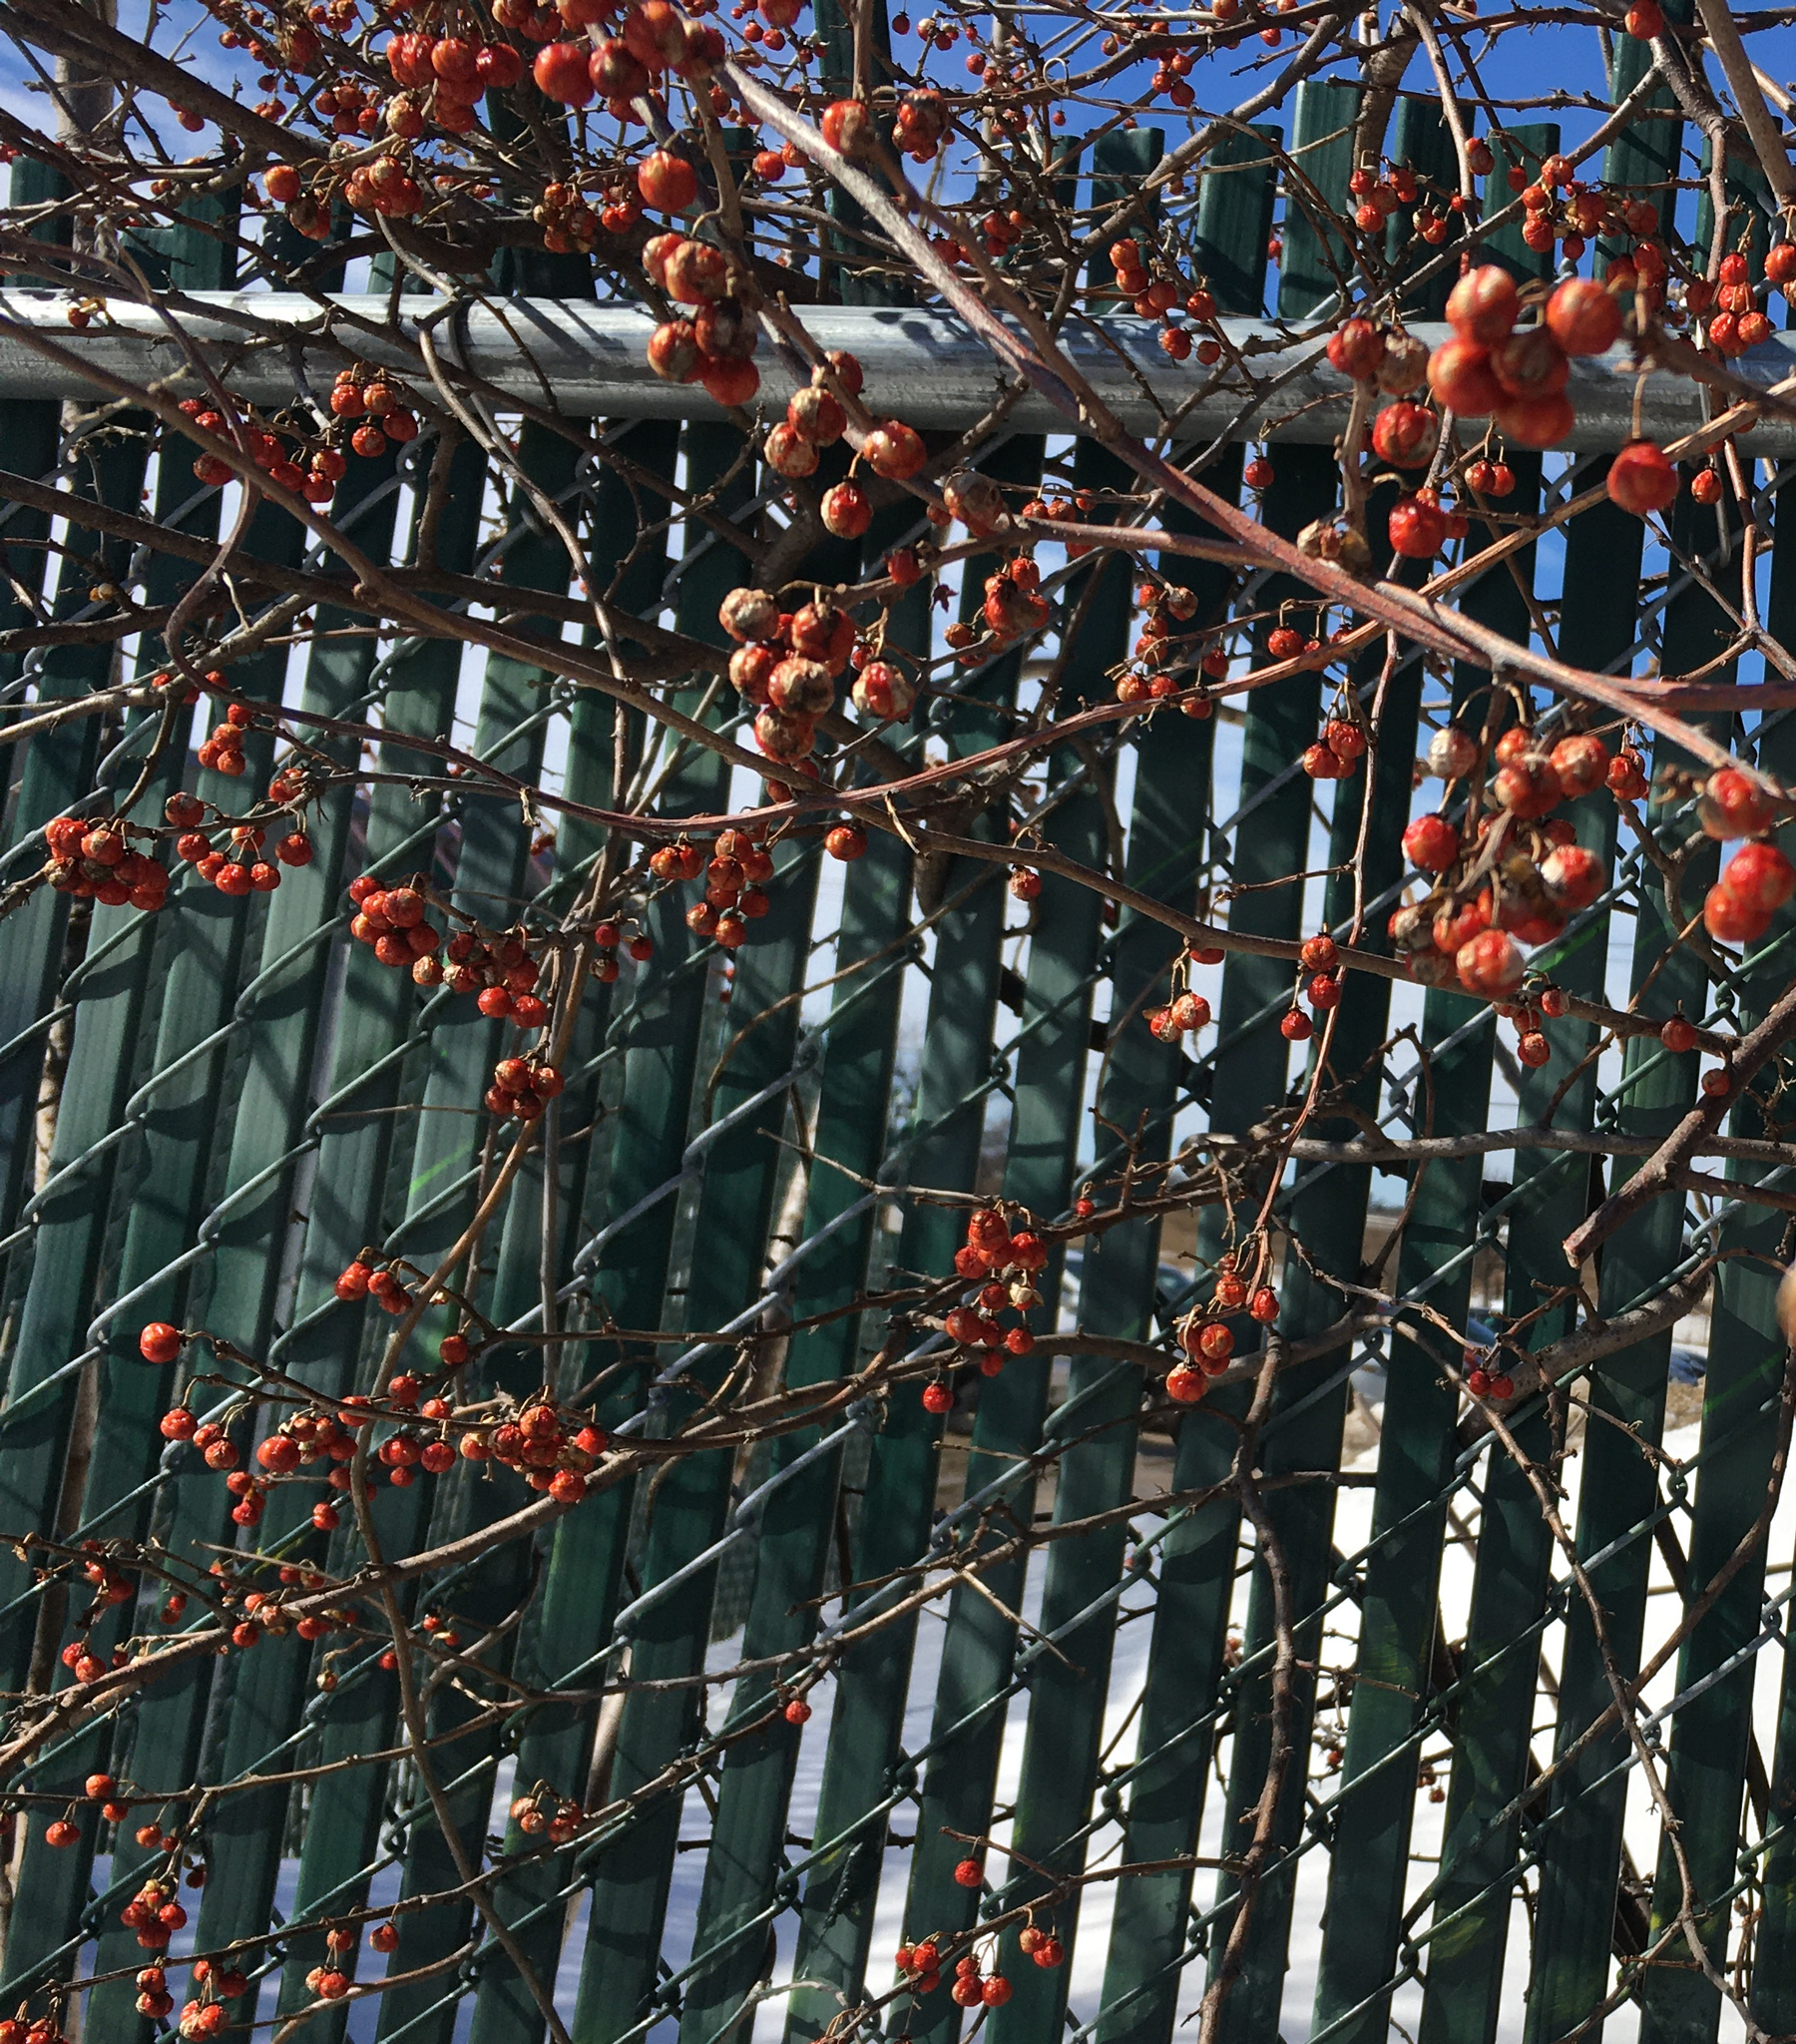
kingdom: Plantae
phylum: Tracheophyta
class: Magnoliopsida
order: Celastrales
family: Celastraceae
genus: Celastrus
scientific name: Celastrus orbiculatus
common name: Oriental bittersweet
